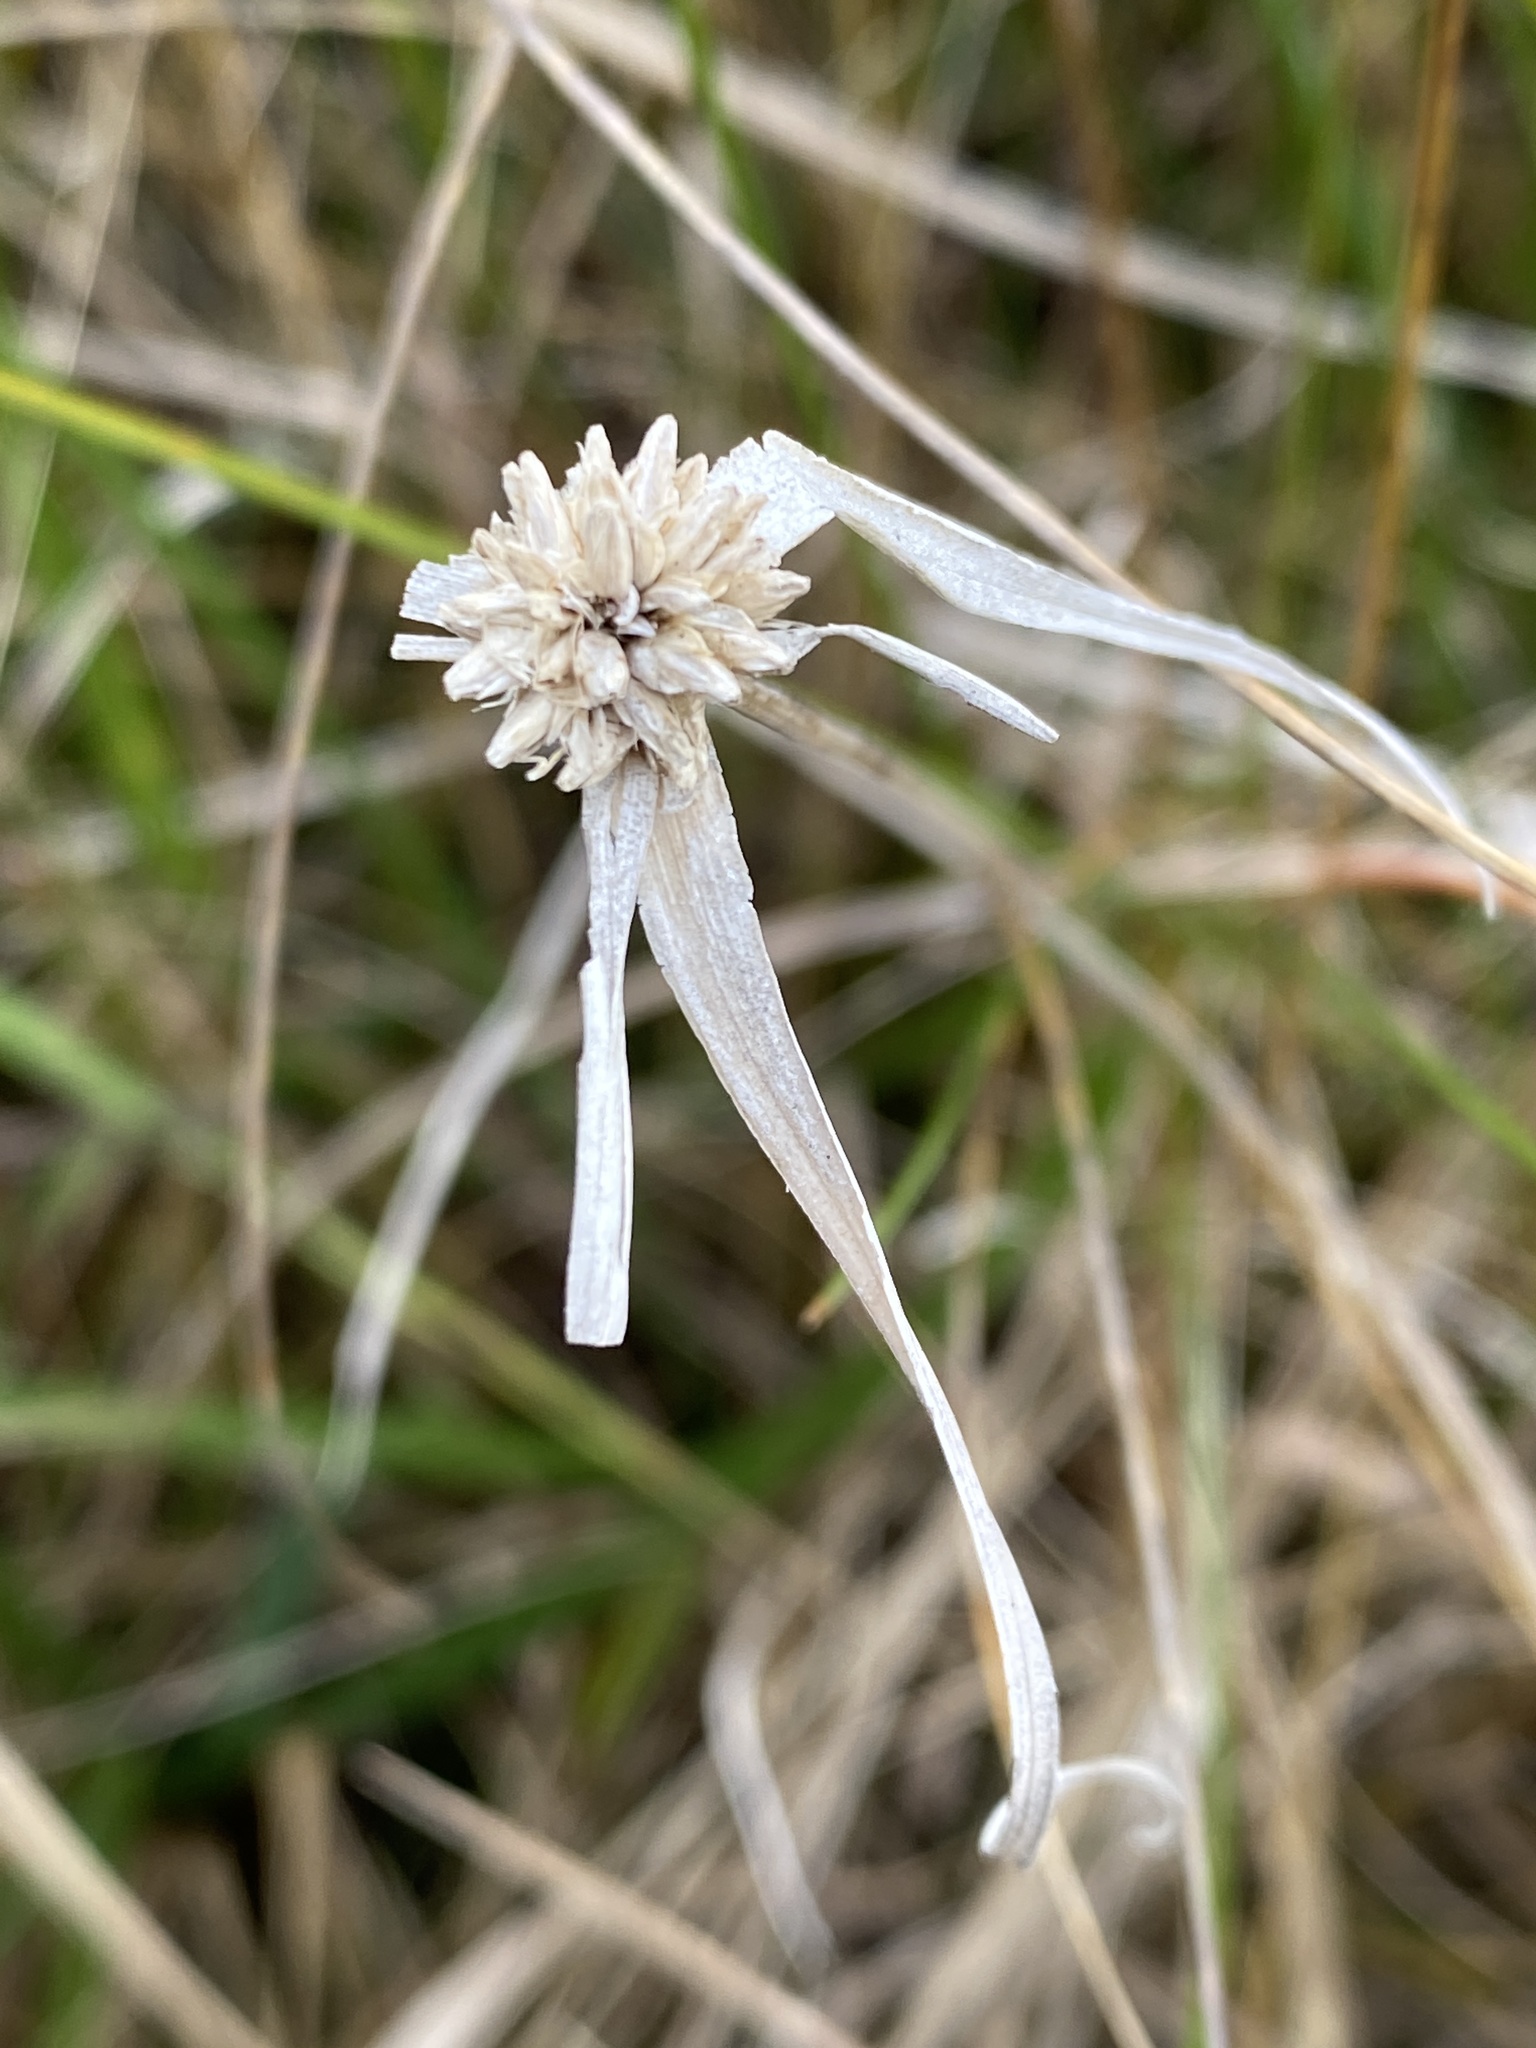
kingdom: Plantae
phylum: Tracheophyta
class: Liliopsida
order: Poales
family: Cyperaceae
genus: Rhynchospora
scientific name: Rhynchospora colorata
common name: Star sedge
